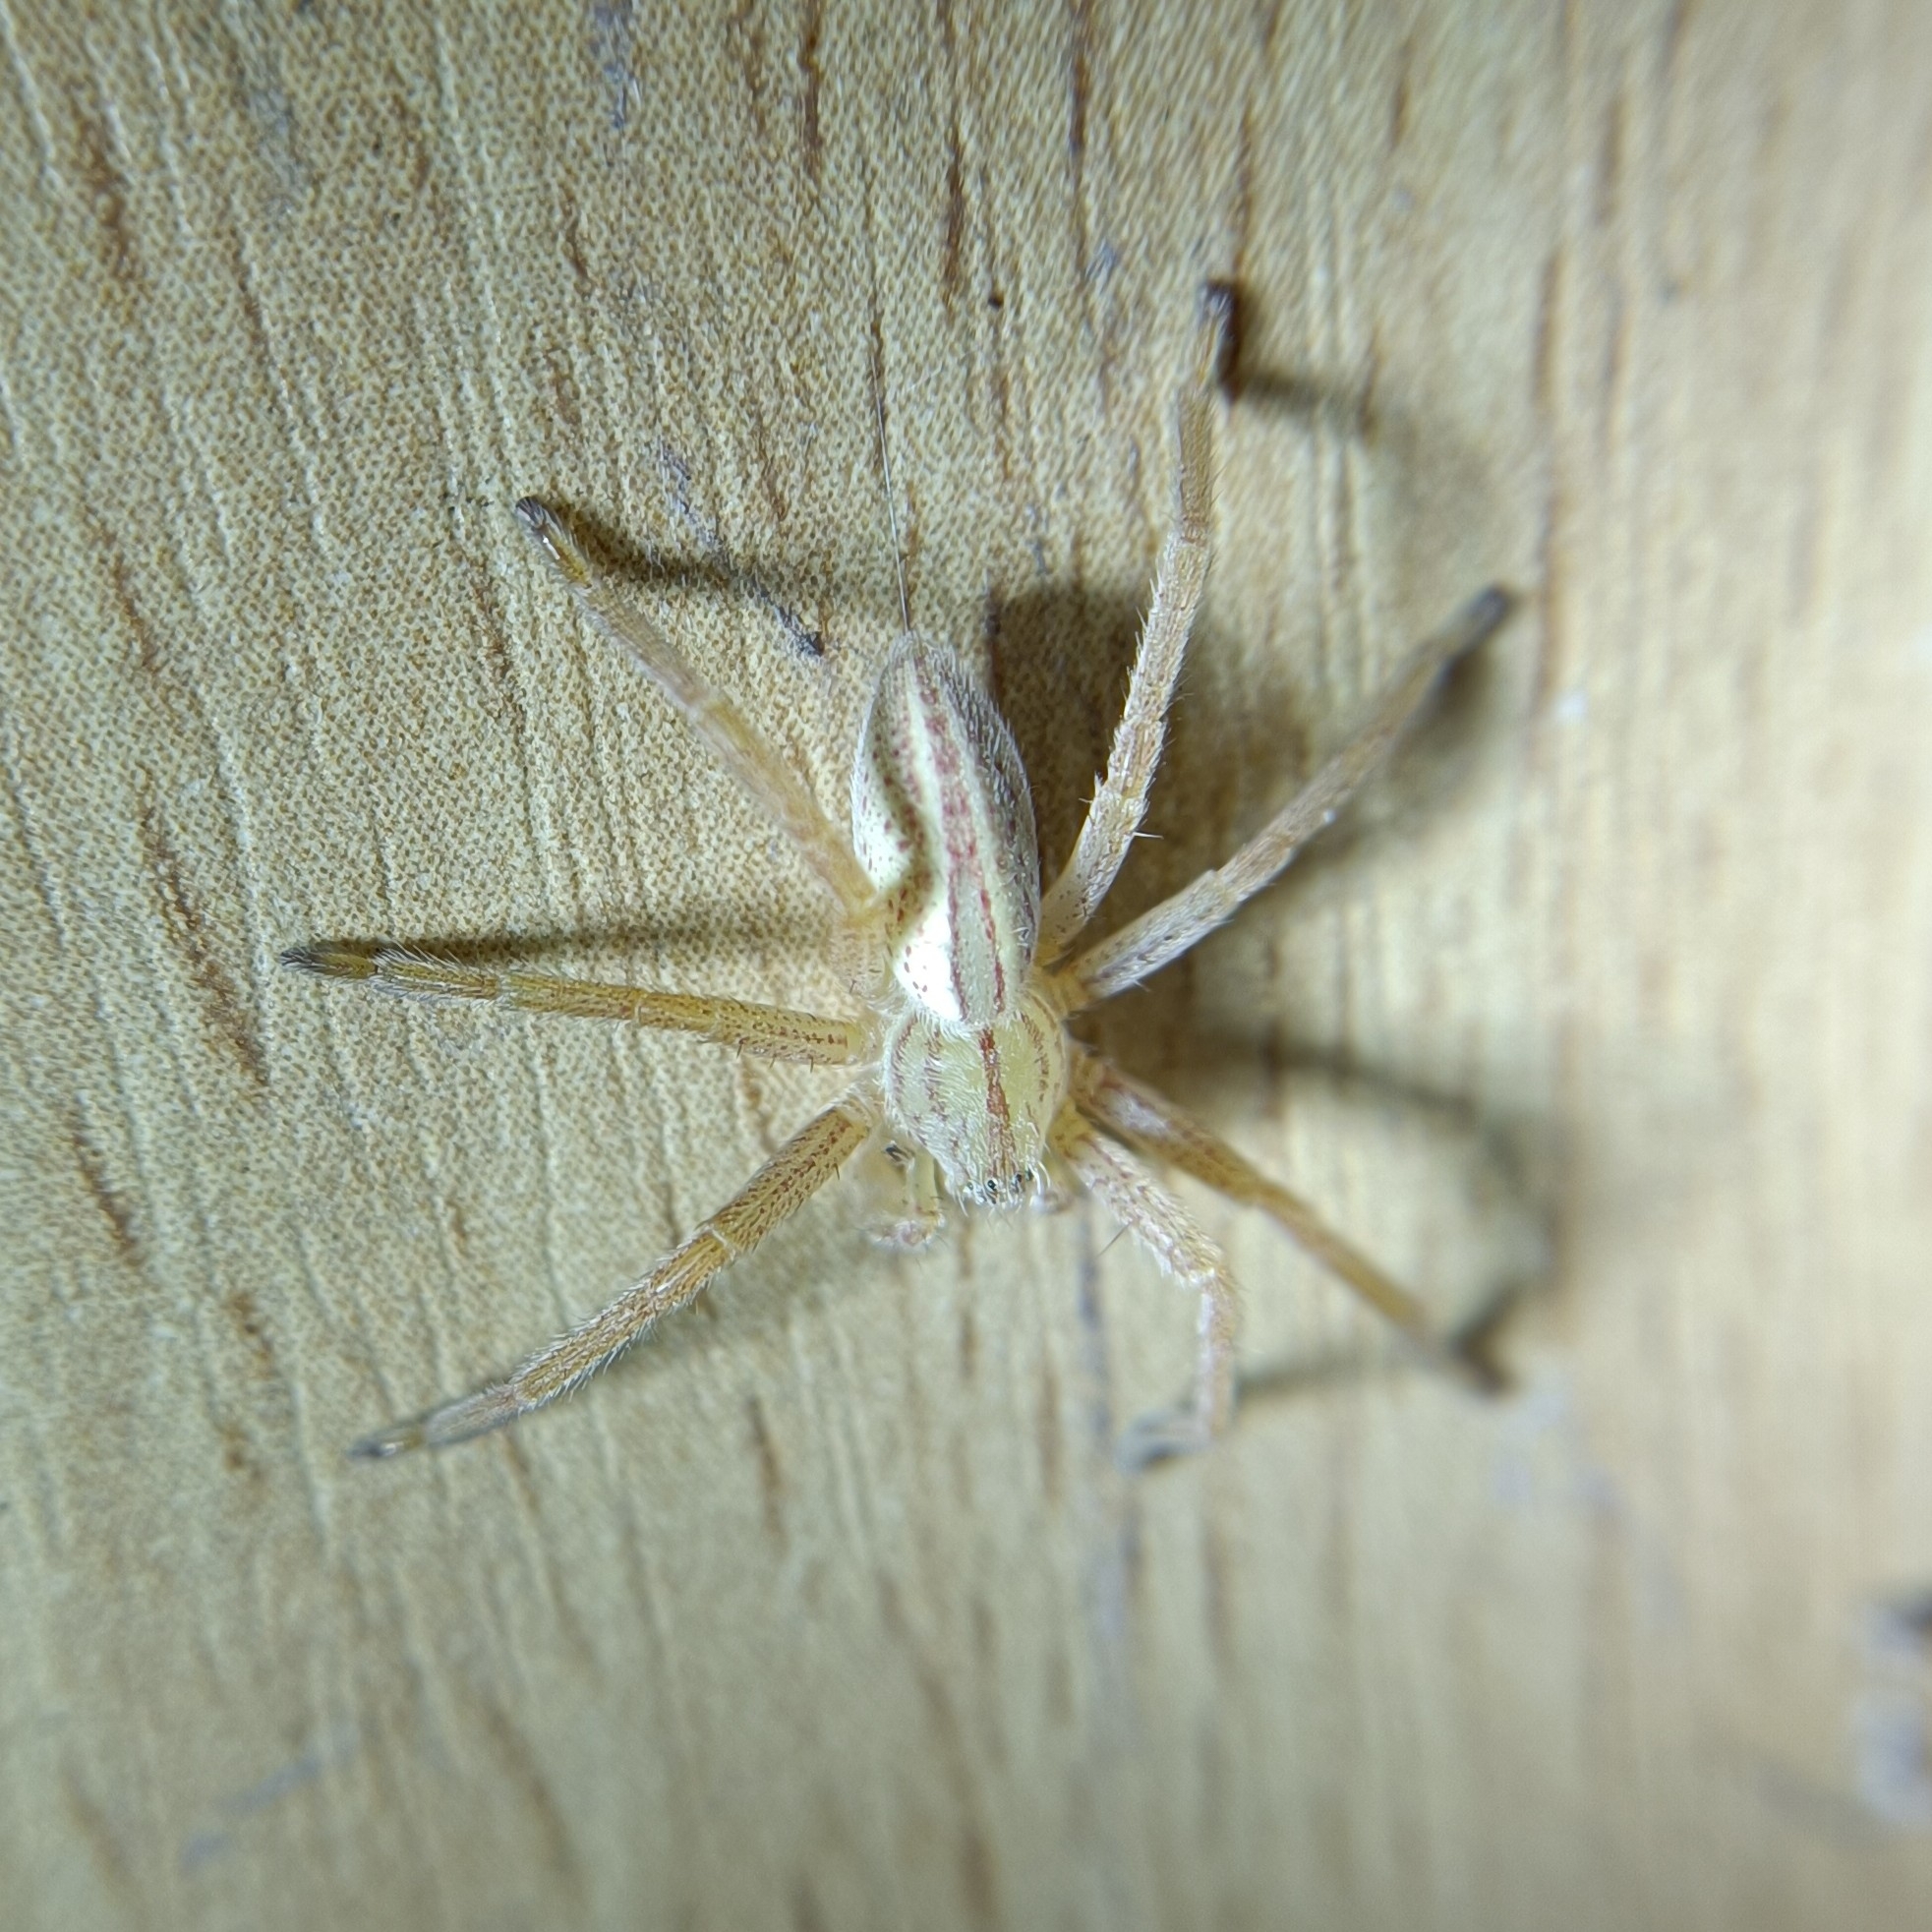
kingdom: Animalia
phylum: Arthropoda
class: Arachnida
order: Araneae
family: Sparassidae
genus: Micrommata
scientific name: Micrommata virescens
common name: Green spider
